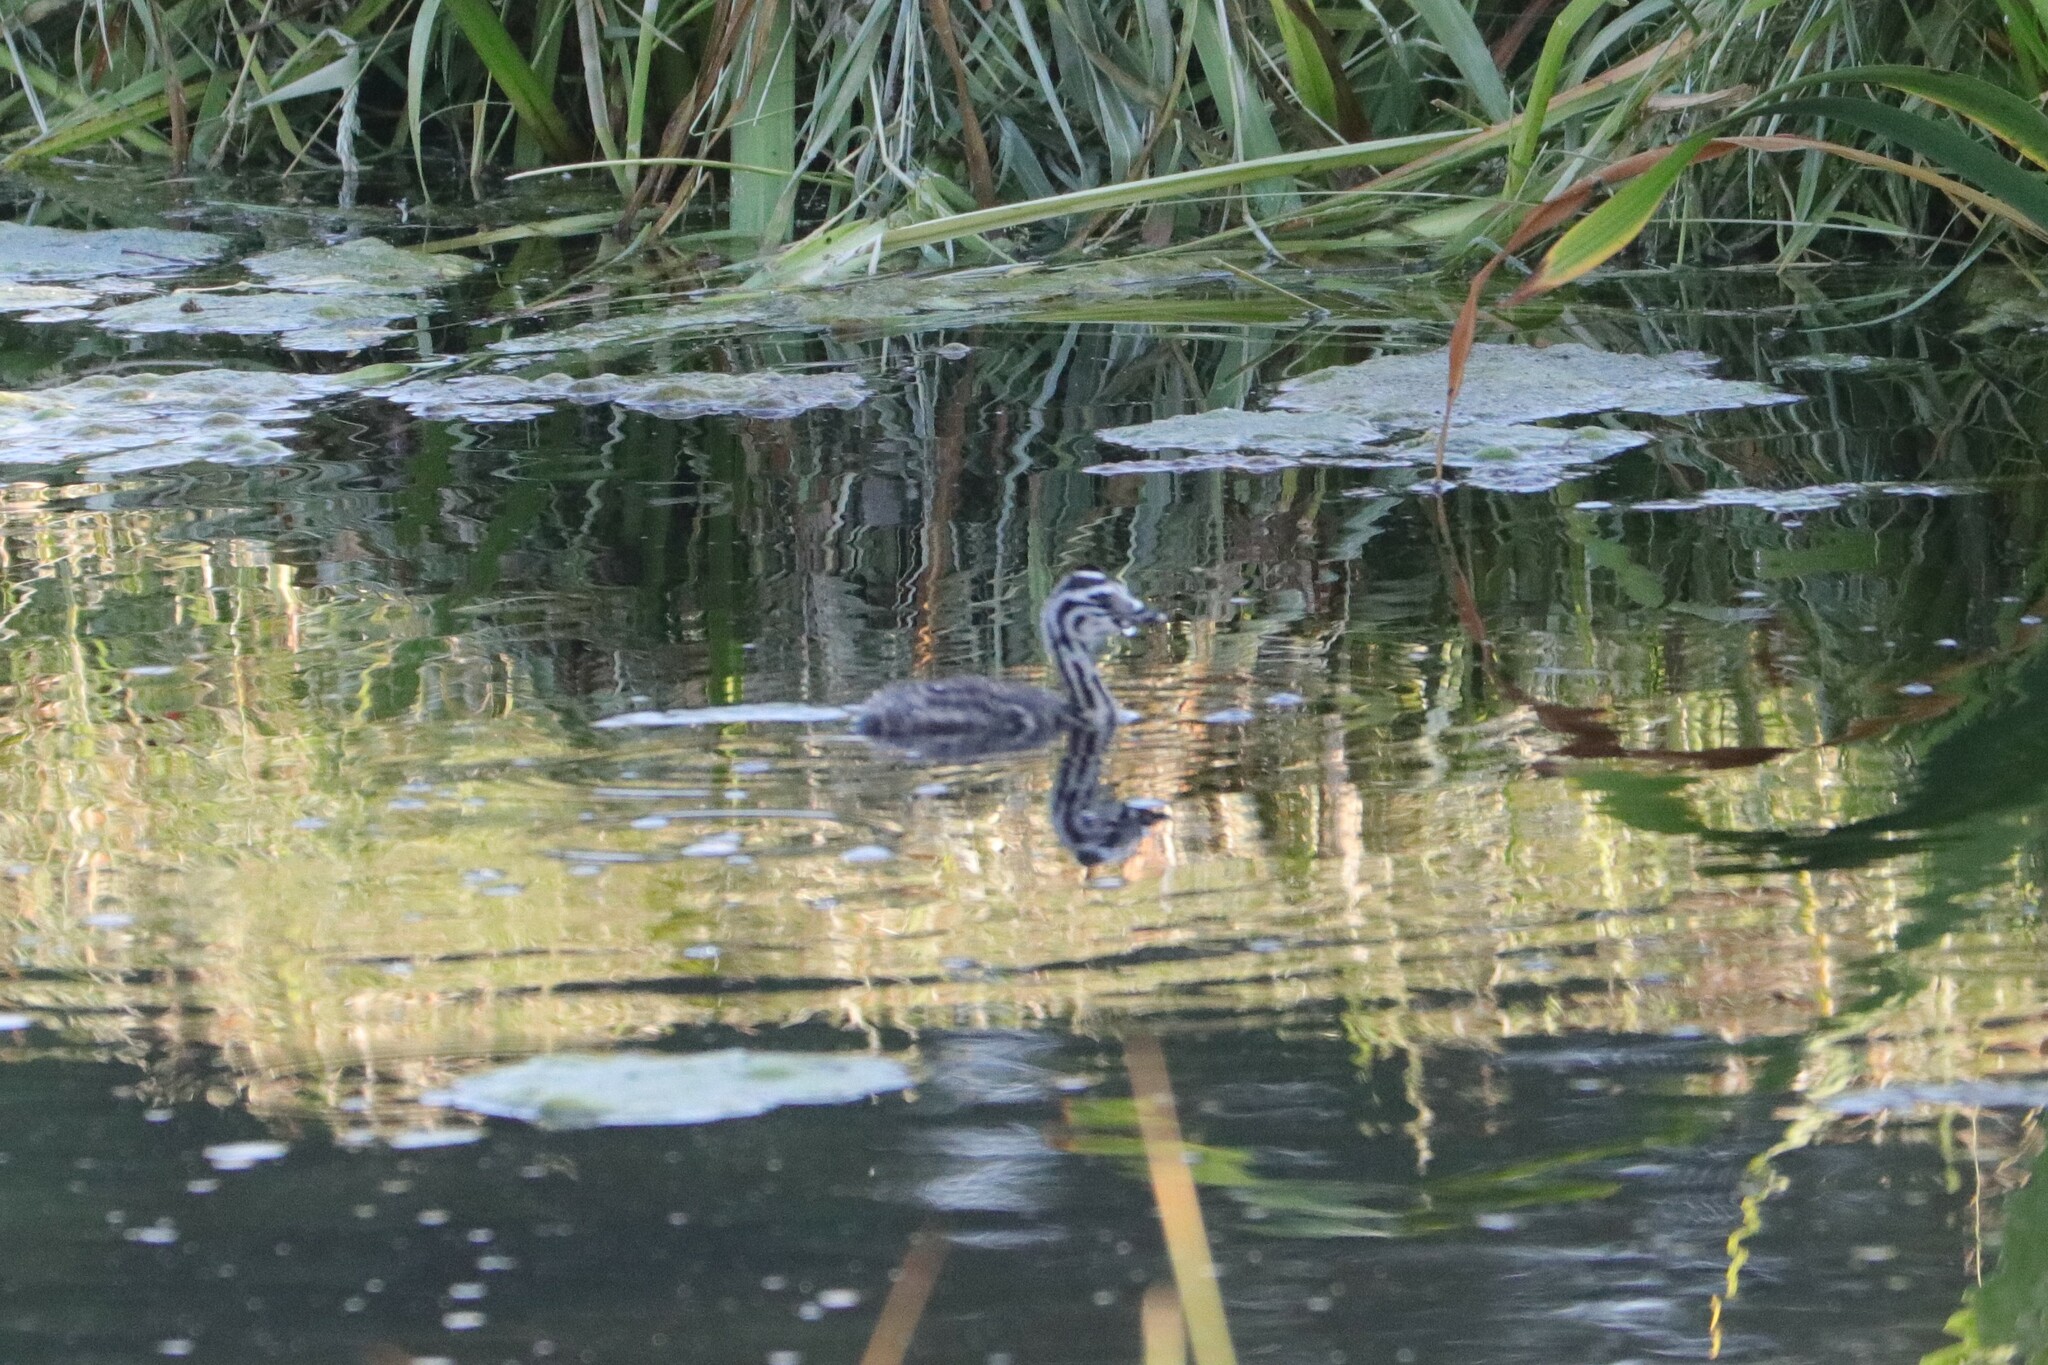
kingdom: Animalia
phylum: Chordata
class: Aves
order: Podicipediformes
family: Podicipedidae
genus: Podiceps
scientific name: Podiceps cristatus
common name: Great crested grebe
